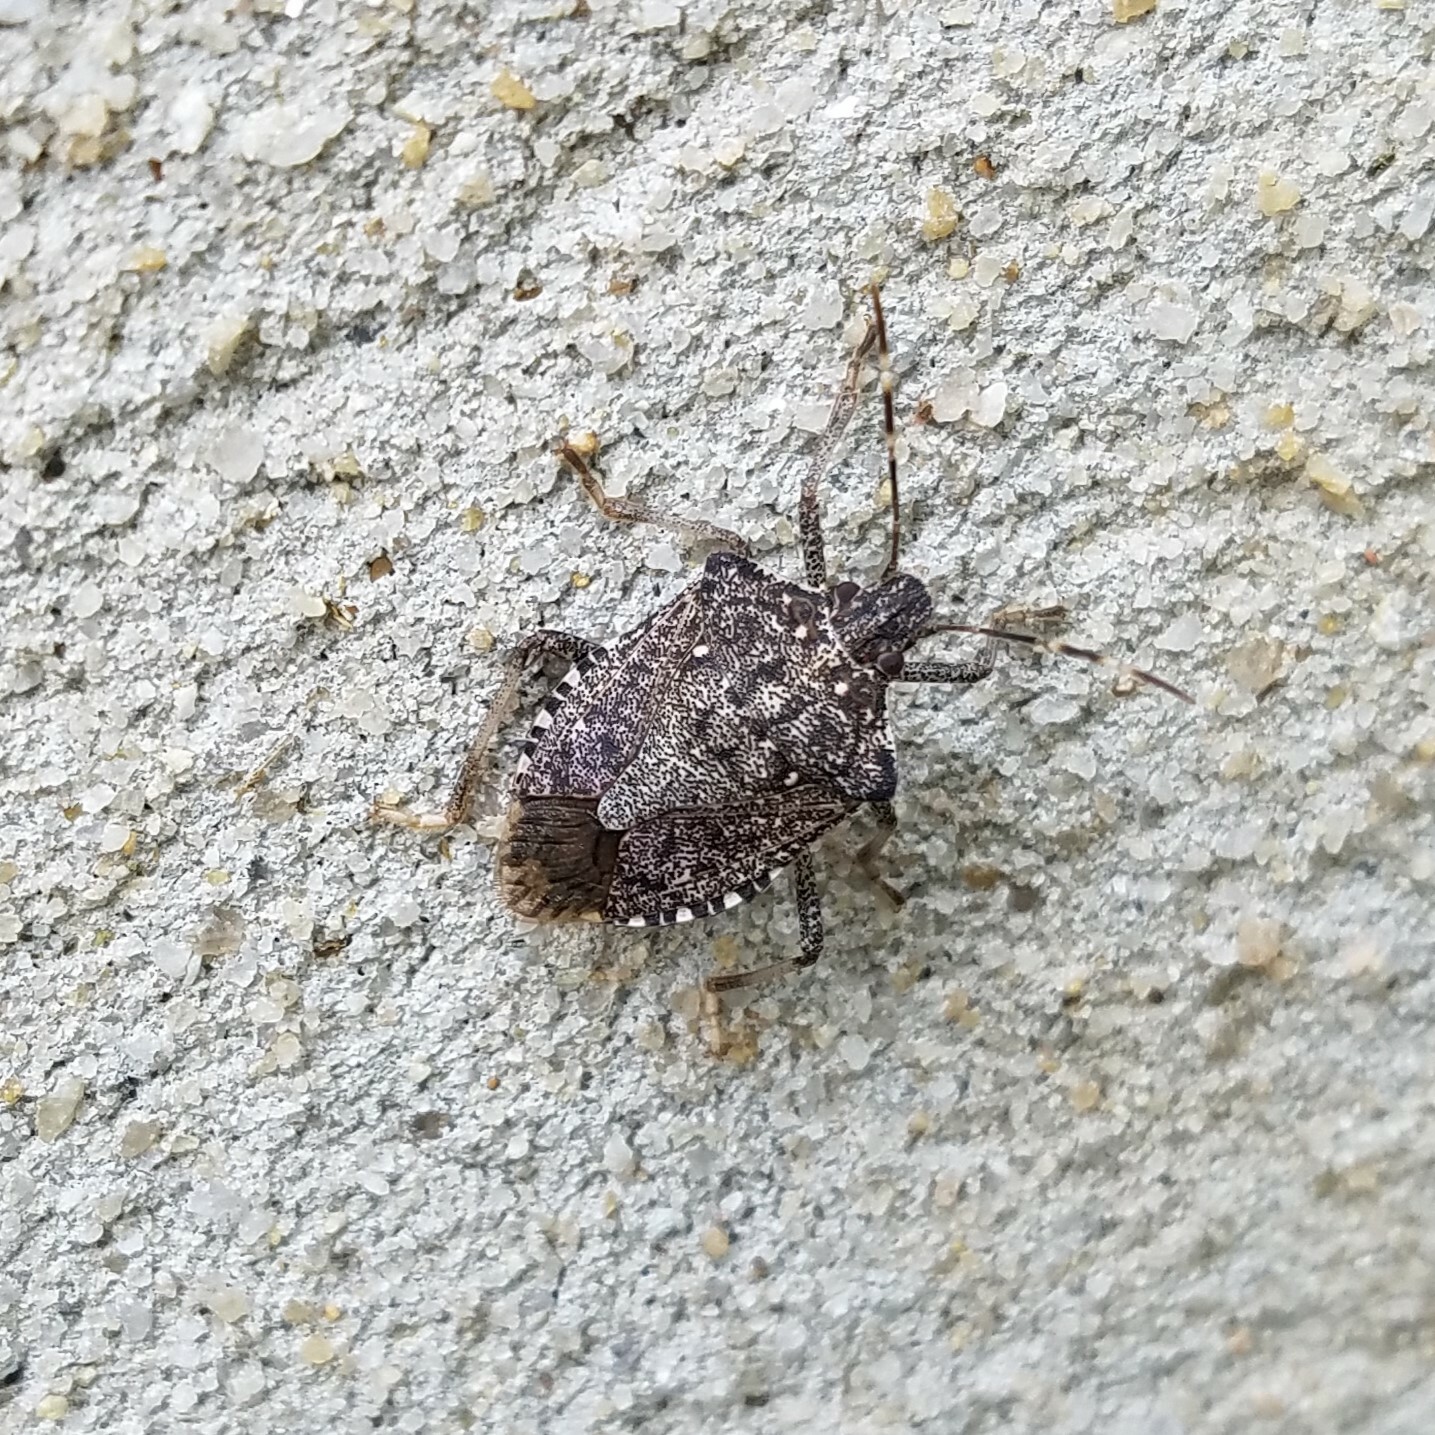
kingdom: Animalia
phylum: Arthropoda
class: Insecta
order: Hemiptera
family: Pentatomidae
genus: Halyomorpha
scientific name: Halyomorpha halys
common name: Brown marmorated stink bug
